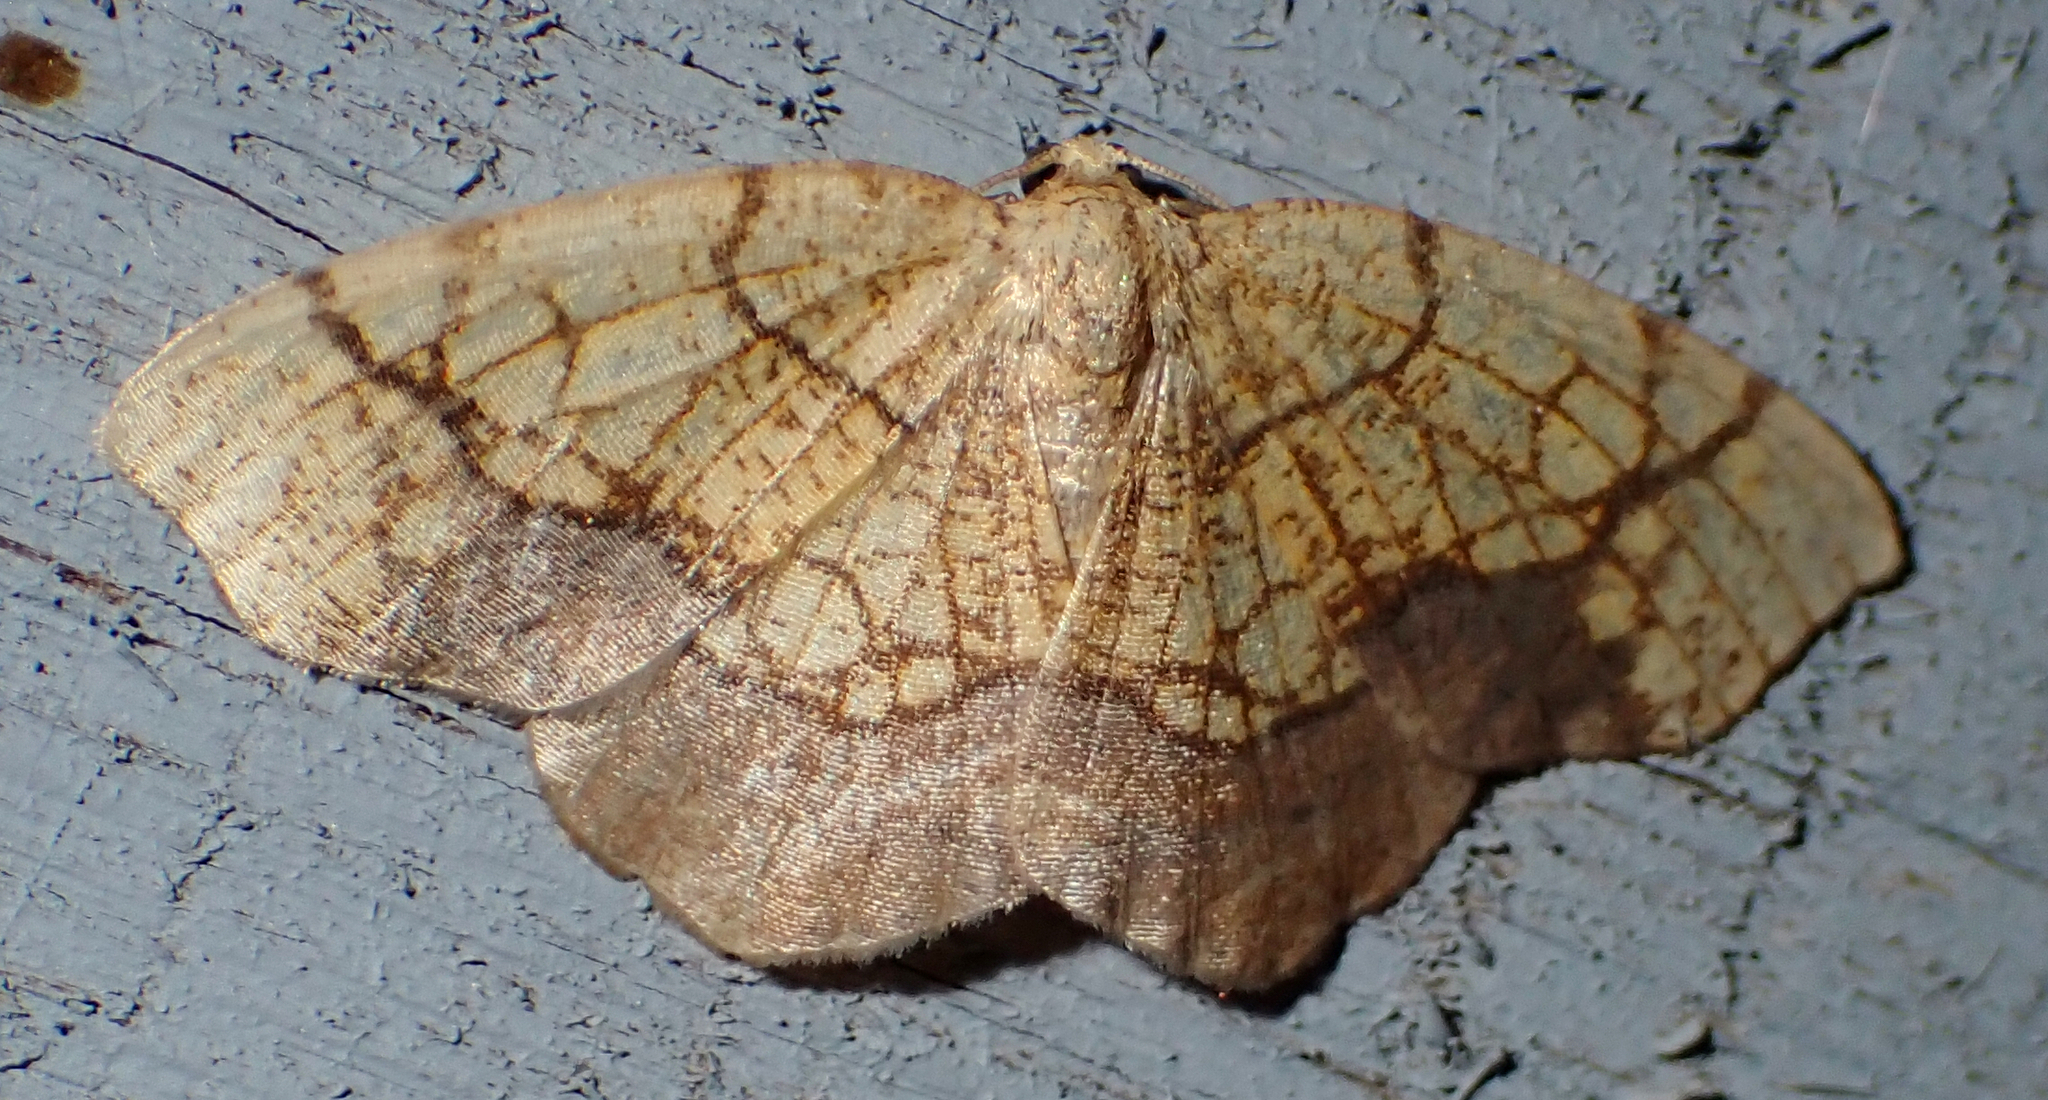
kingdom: Animalia
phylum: Arthropoda
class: Insecta
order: Lepidoptera
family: Geometridae
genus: Nematocampa
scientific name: Nematocampa resistaria
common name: Horned spanworm moth
